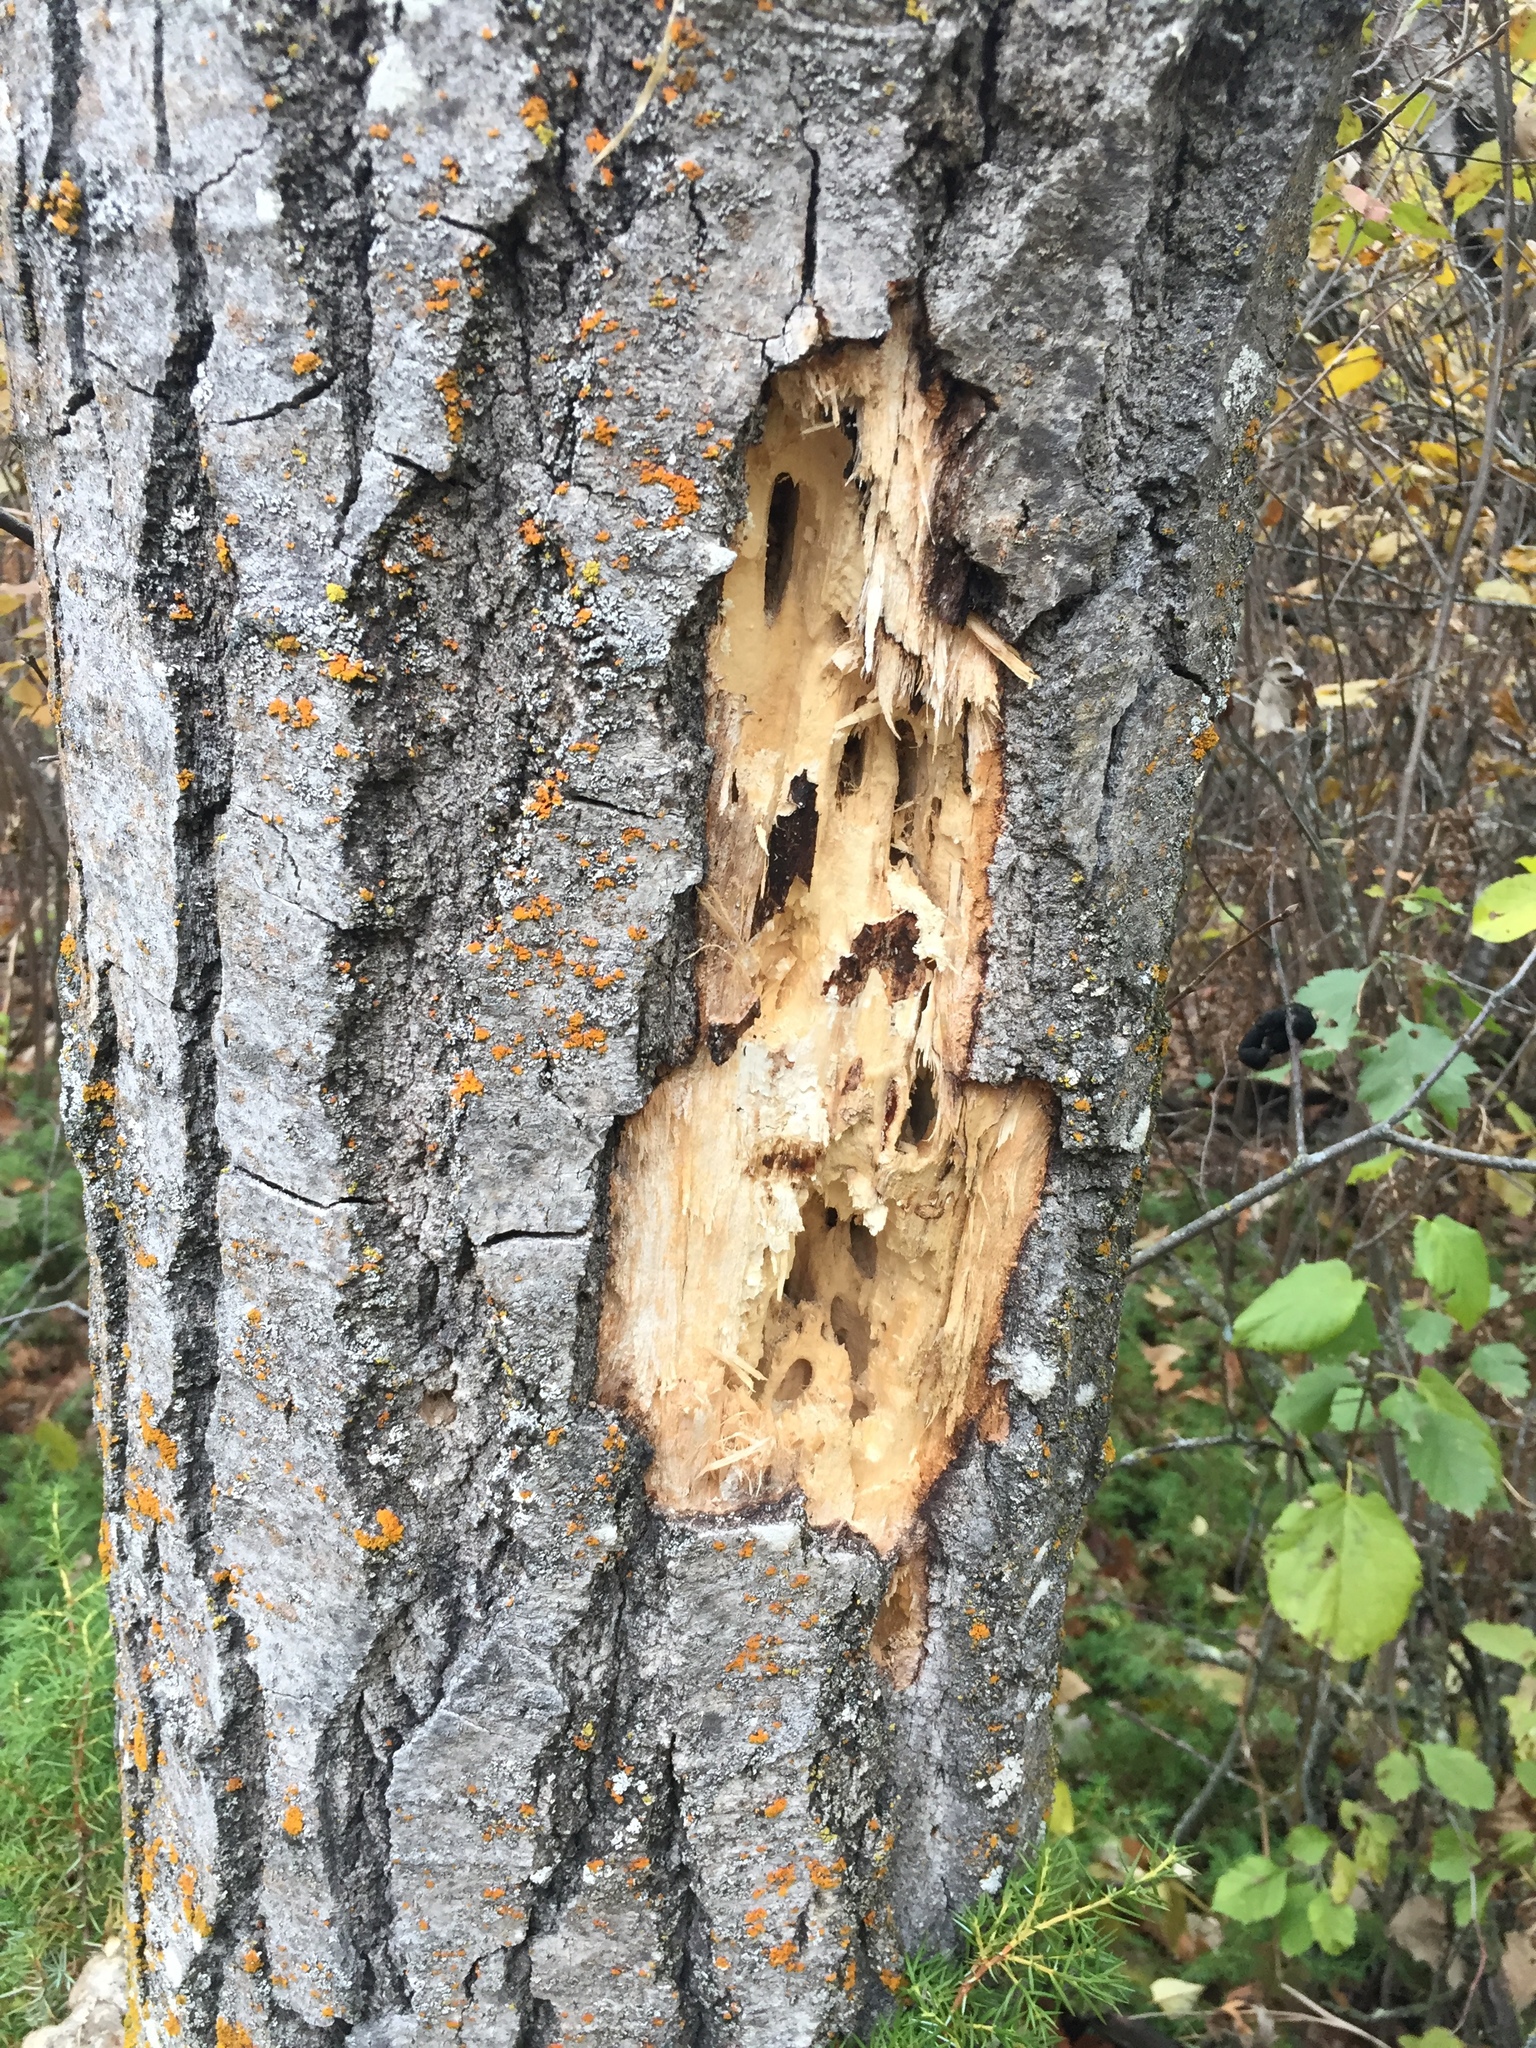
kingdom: Animalia
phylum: Chordata
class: Aves
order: Piciformes
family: Picidae
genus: Dryocopus
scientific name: Dryocopus pileatus
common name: Pileated woodpecker
